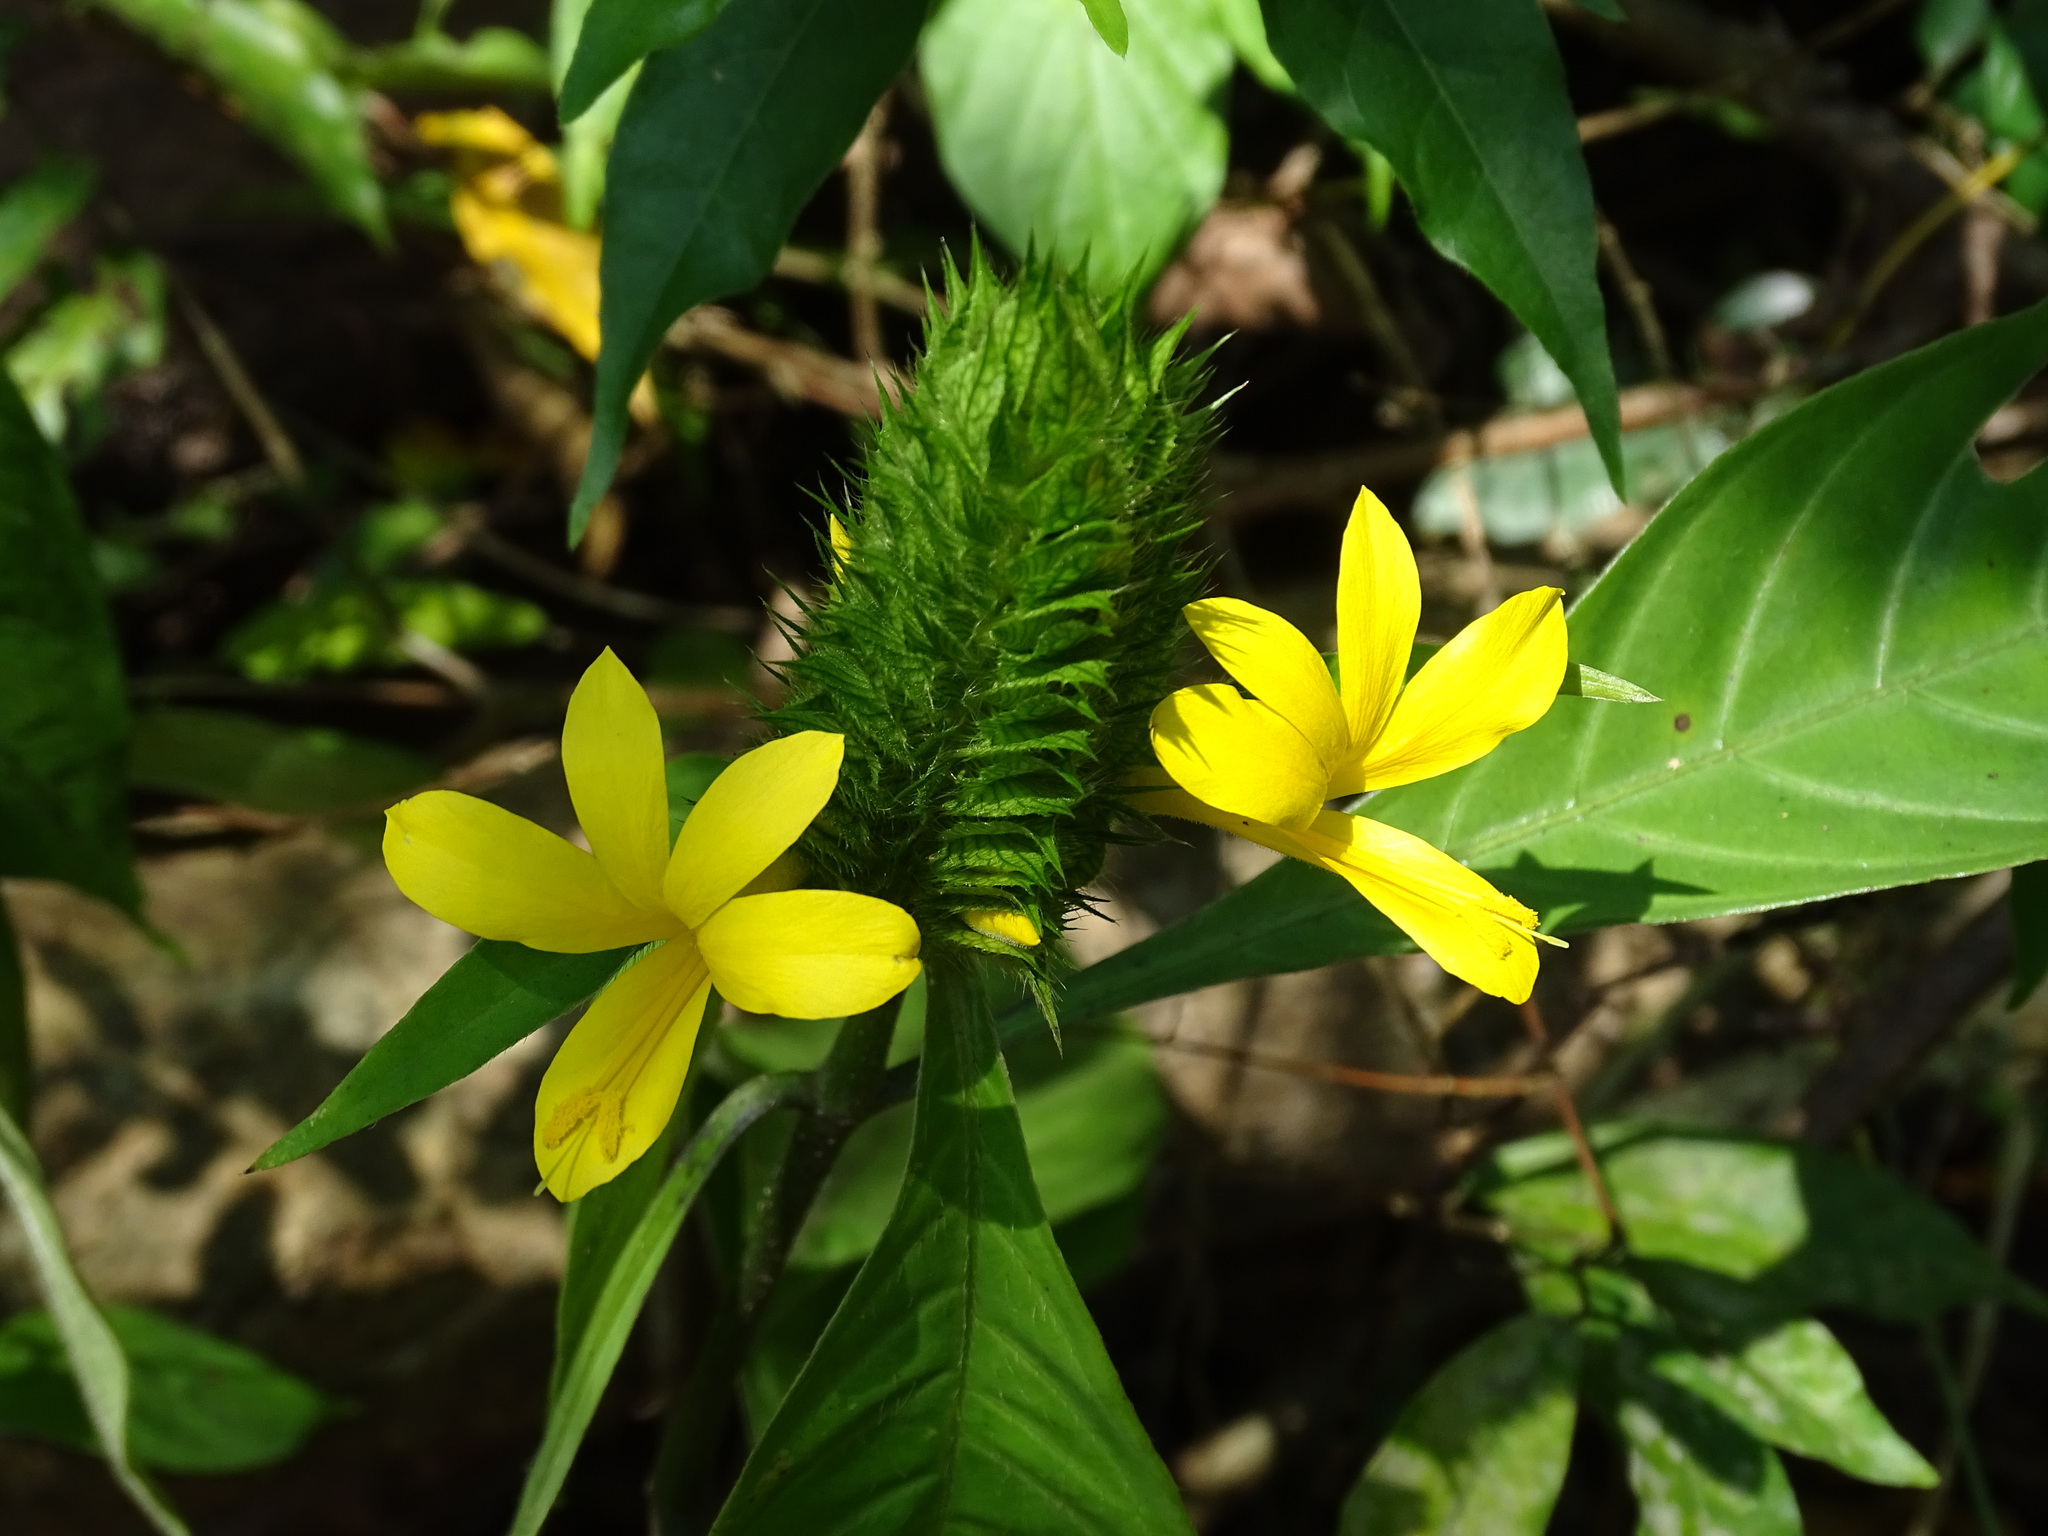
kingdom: Plantae
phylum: Tracheophyta
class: Magnoliopsida
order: Lamiales
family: Acanthaceae
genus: Barleria
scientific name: Barleria oenotheroides
